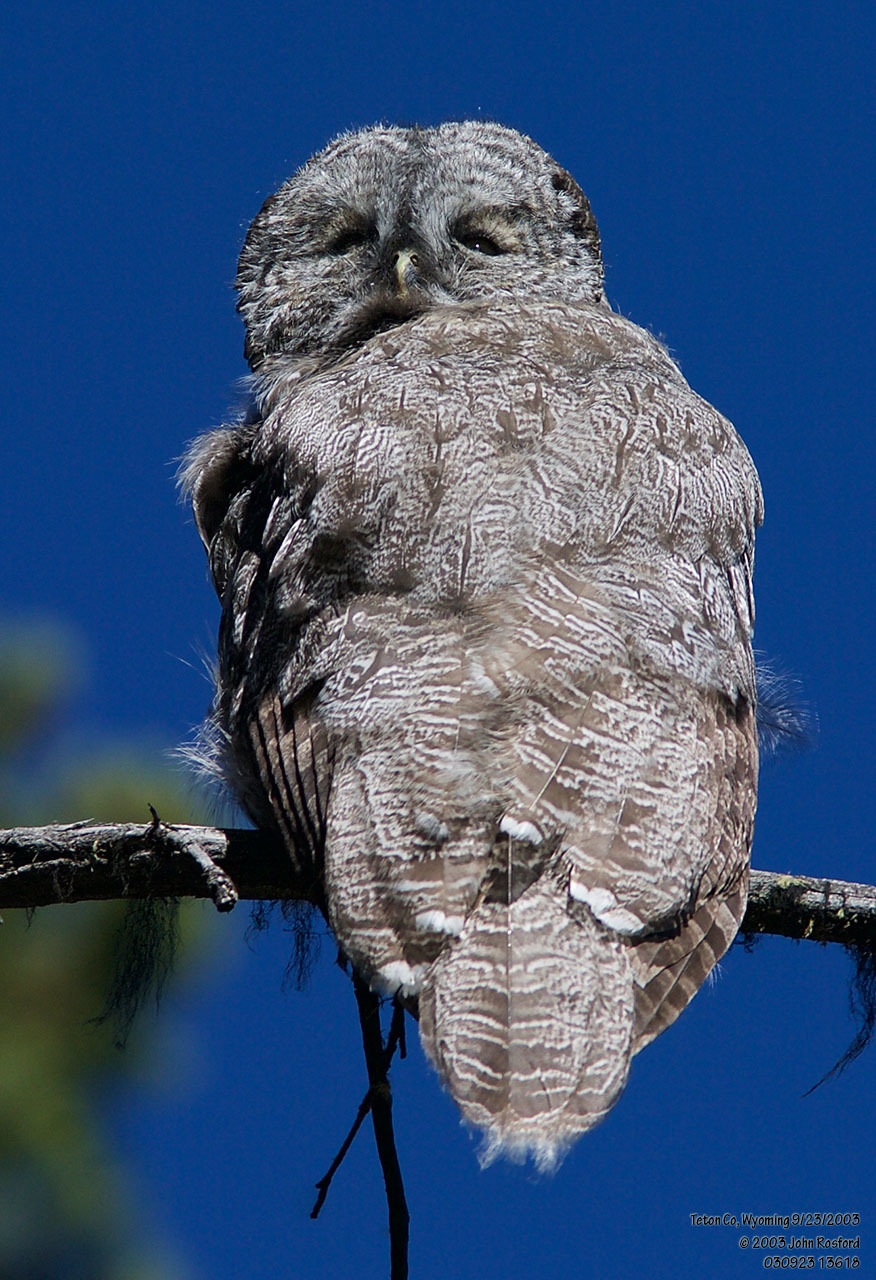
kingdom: Animalia
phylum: Chordata
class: Aves
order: Strigiformes
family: Strigidae
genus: Strix
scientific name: Strix nebulosa
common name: Great grey owl
